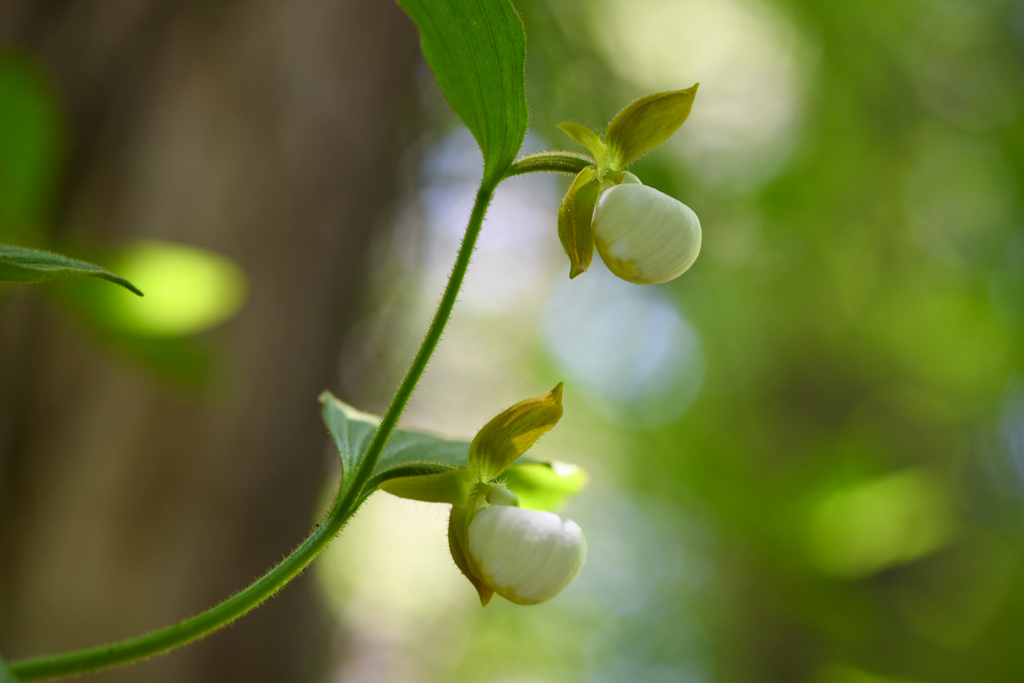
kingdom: Plantae
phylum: Tracheophyta
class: Liliopsida
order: Asparagales
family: Orchidaceae
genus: Cypripedium
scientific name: Cypripedium californicum
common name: California lady's slipper
